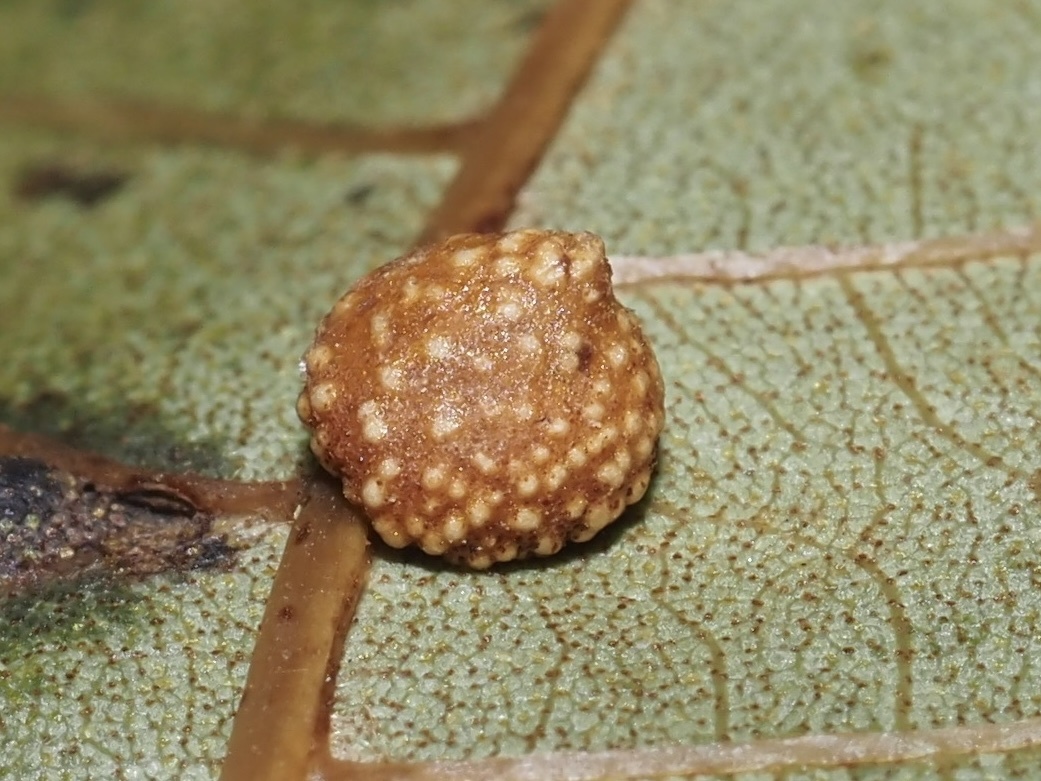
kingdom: Animalia
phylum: Arthropoda
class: Insecta
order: Diptera
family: Cecidomyiidae
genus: Caryomyia
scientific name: Caryomyia tuberculata
